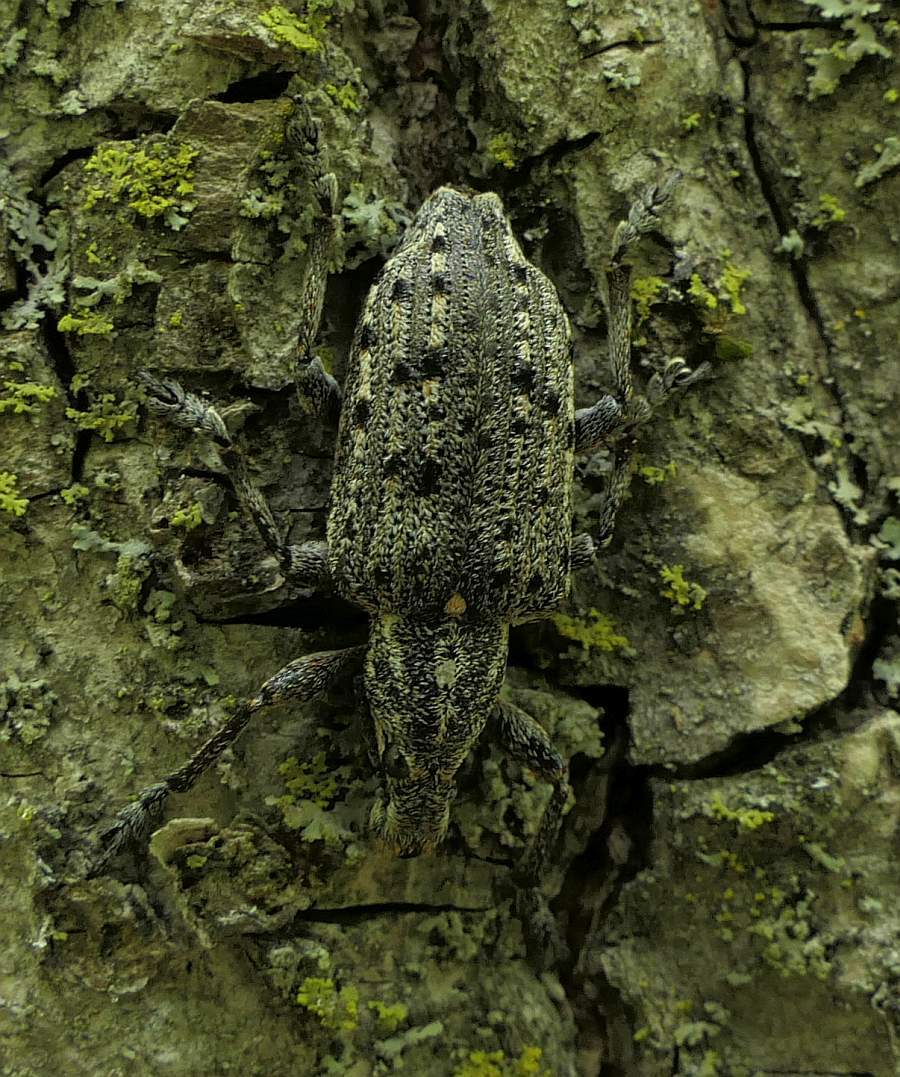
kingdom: Animalia
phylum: Arthropoda
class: Insecta
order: Coleoptera
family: Ithyceridae
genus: Ithycerus
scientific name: Ithycerus noveboracensis
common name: New york weevil
